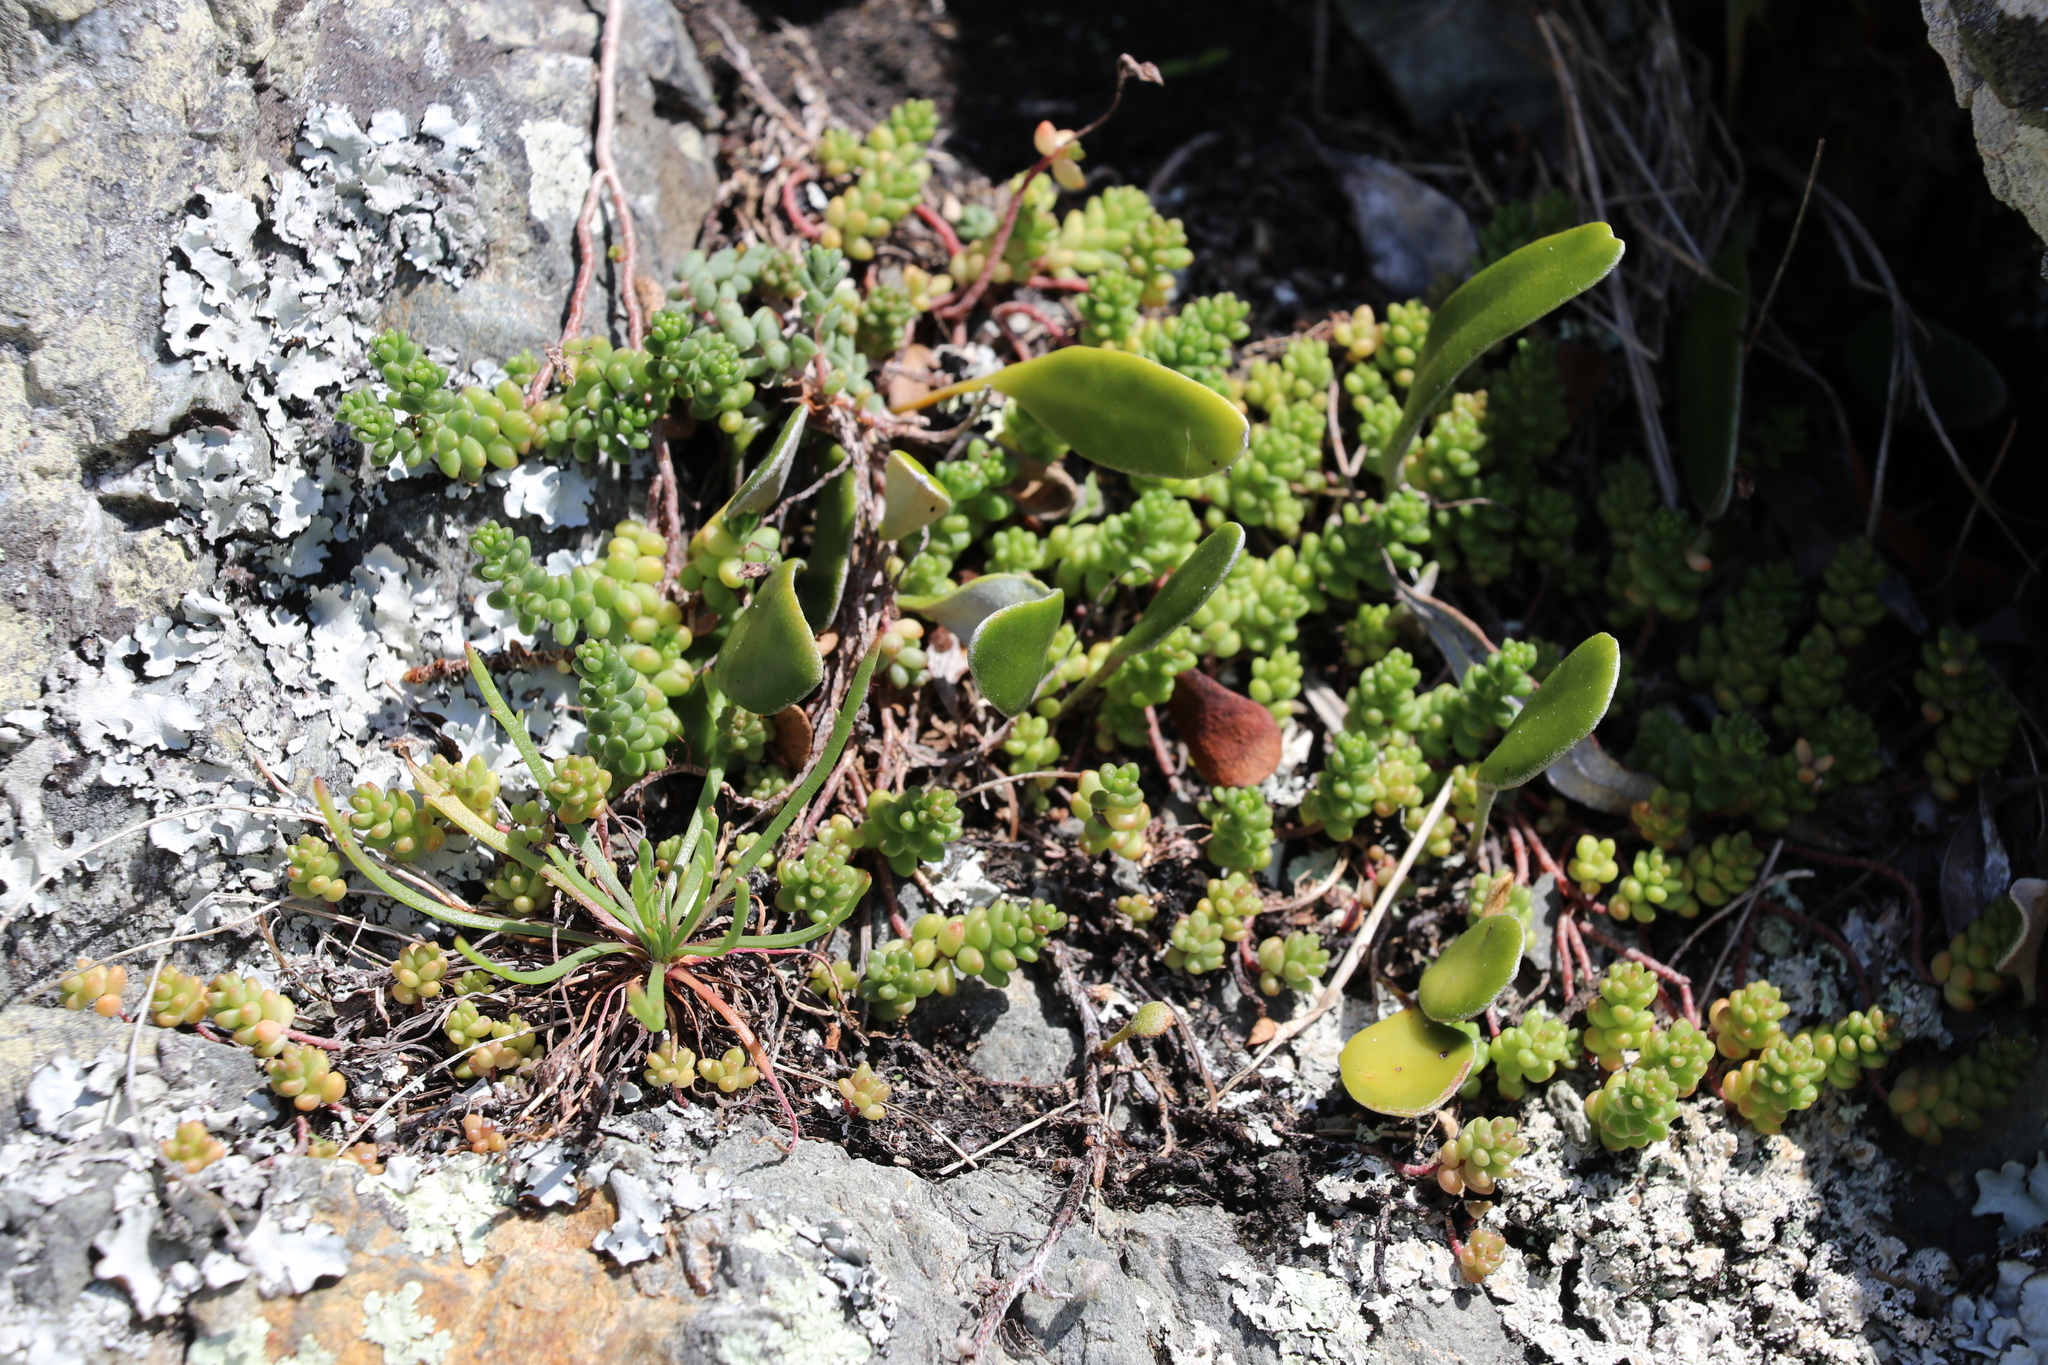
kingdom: Plantae
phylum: Tracheophyta
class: Magnoliopsida
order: Saxifragales
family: Crassulaceae
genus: Sedum
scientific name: Sedum album
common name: White stonecrop
